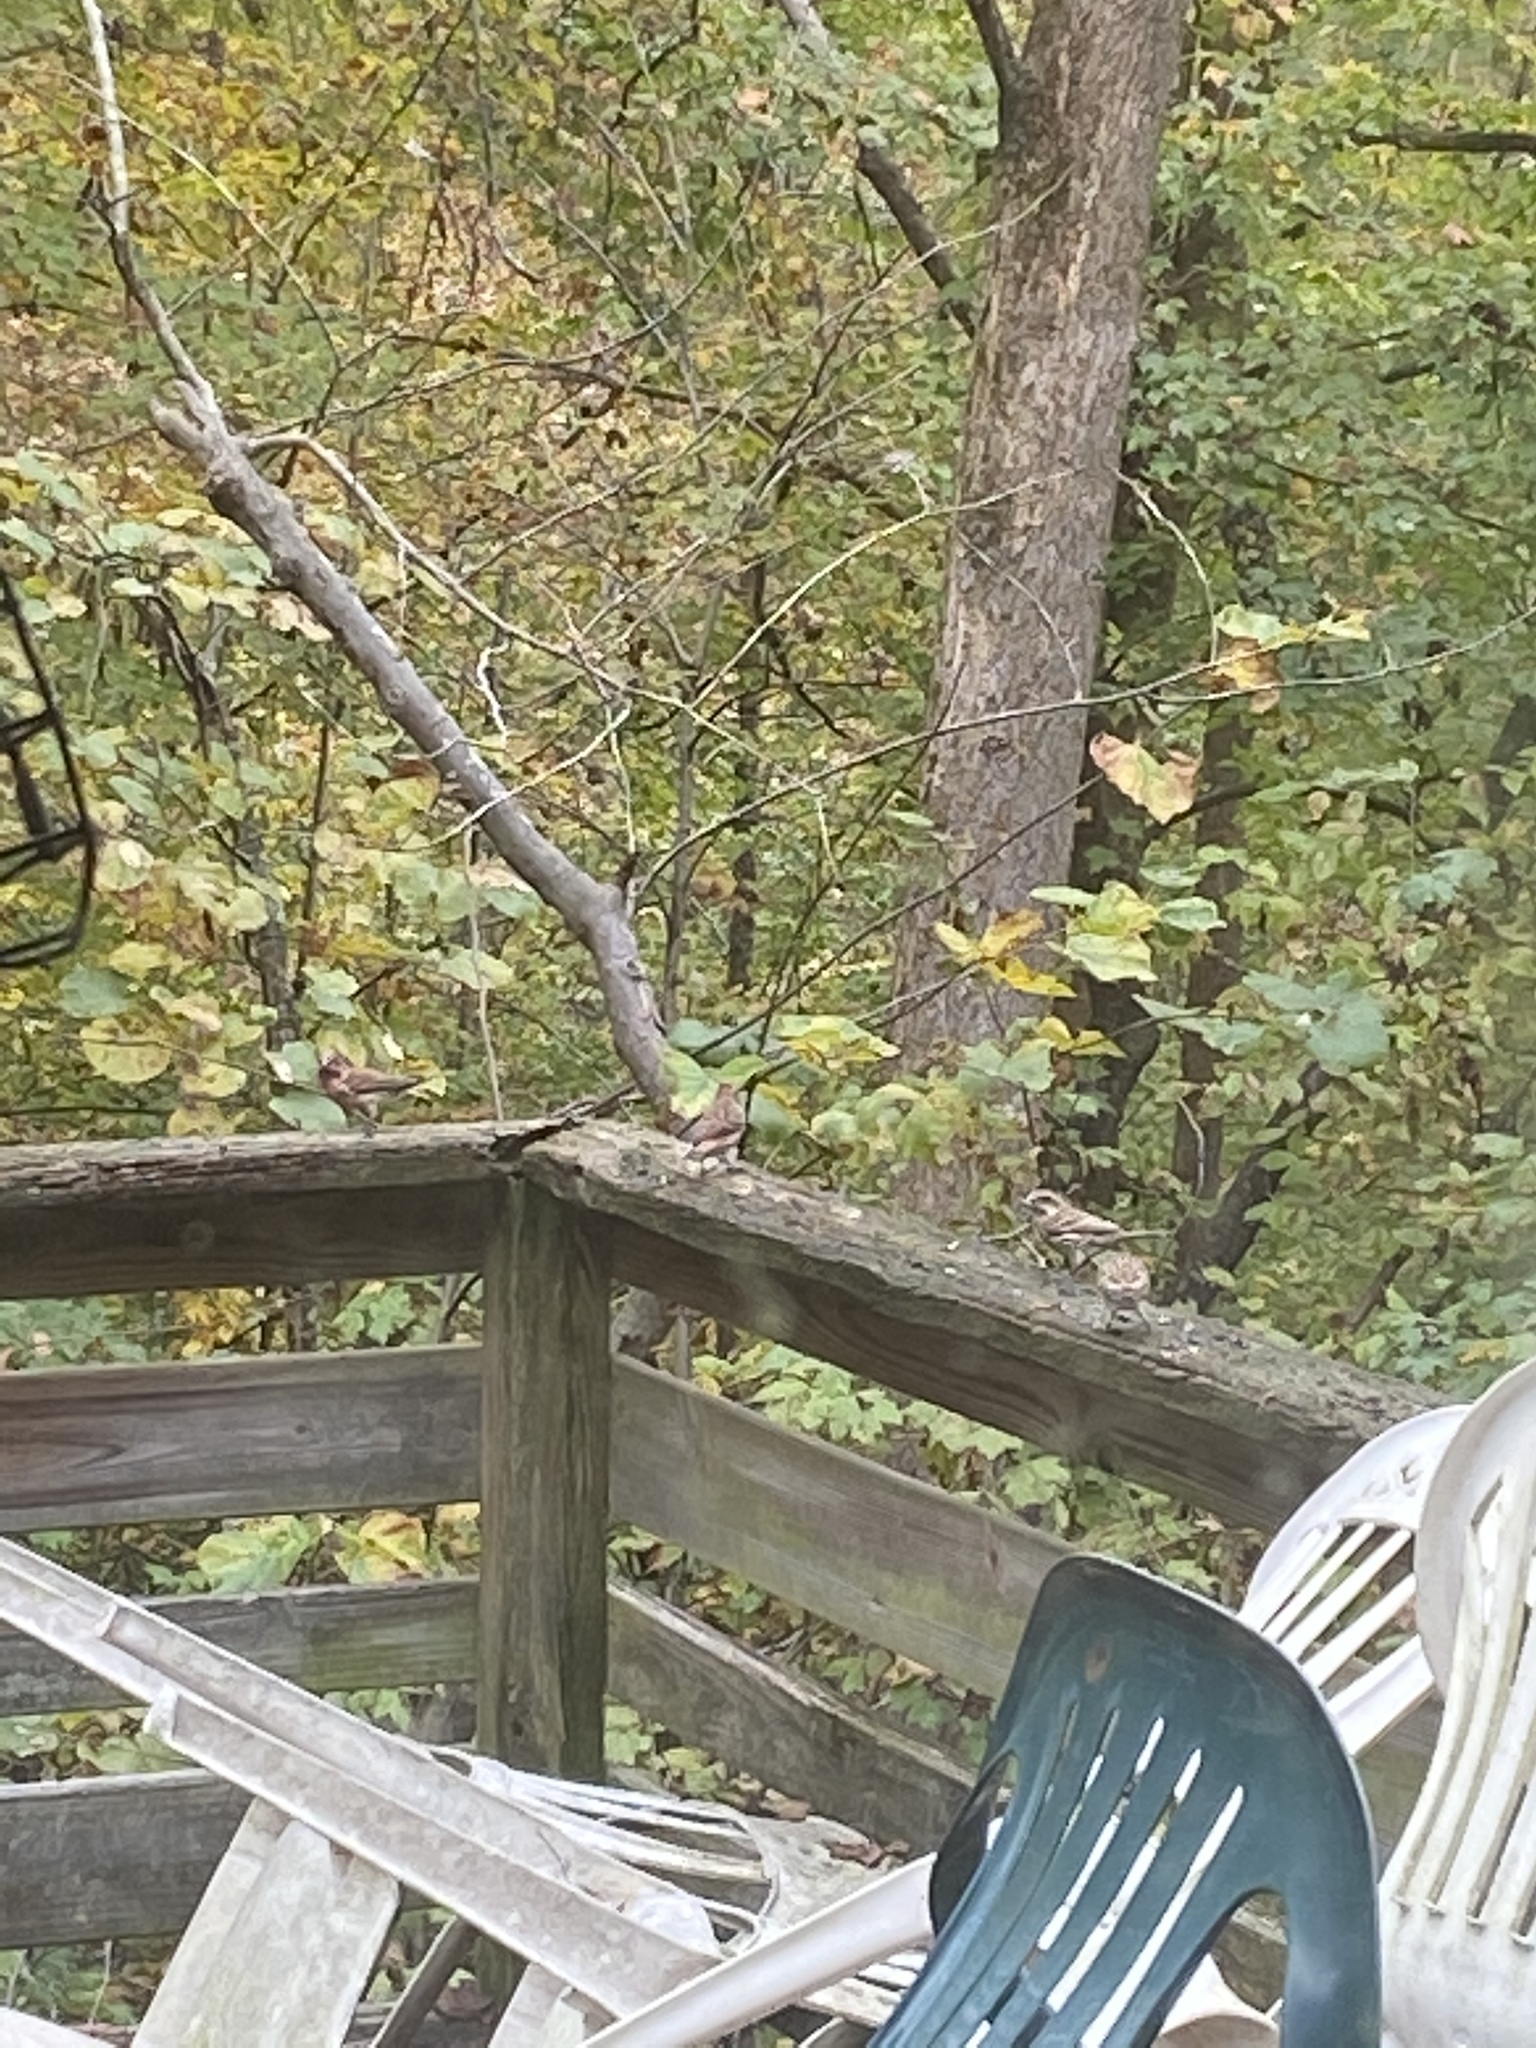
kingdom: Animalia
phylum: Chordata
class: Aves
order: Passeriformes
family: Fringillidae
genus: Haemorhous
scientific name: Haemorhous purpureus
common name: Purple finch
